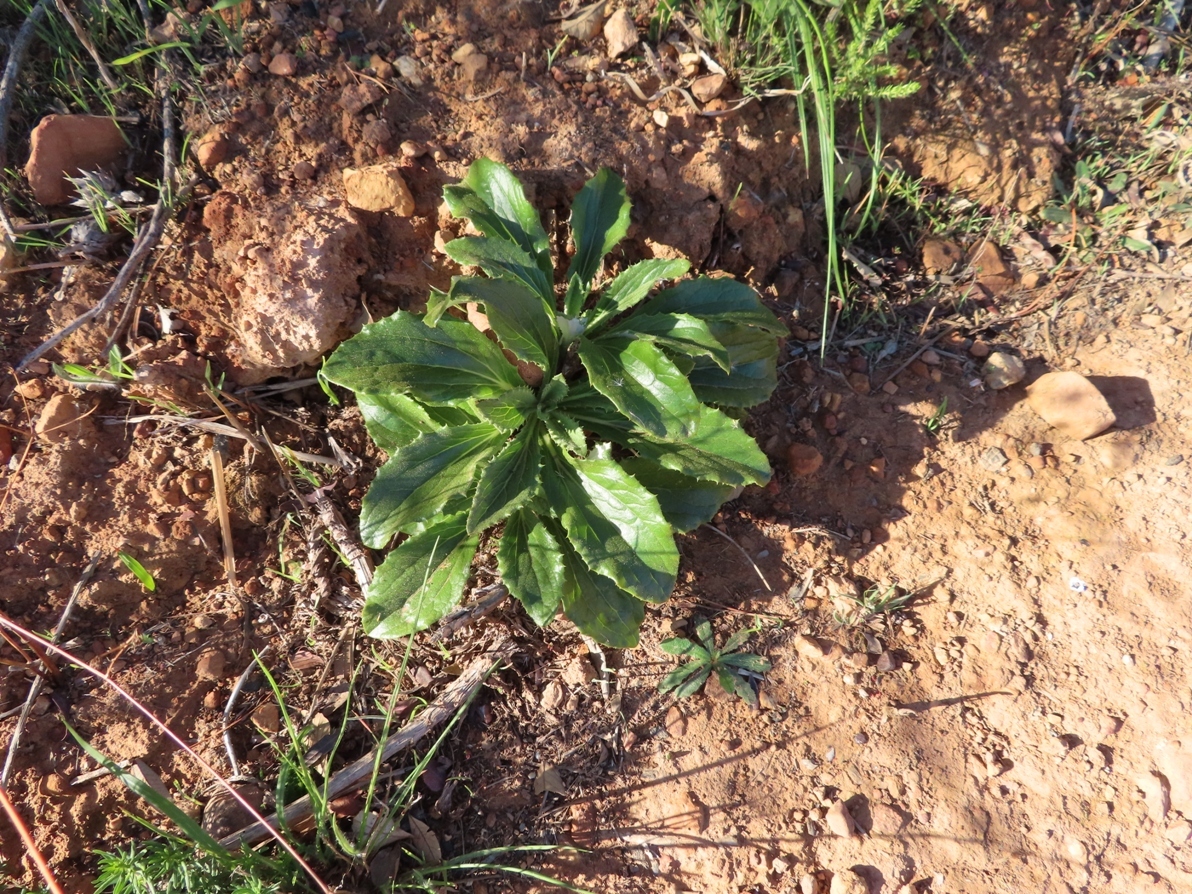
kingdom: Plantae
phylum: Tracheophyta
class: Magnoliopsida
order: Asterales
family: Asteraceae
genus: Berkheya
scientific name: Berkheya herbacea
